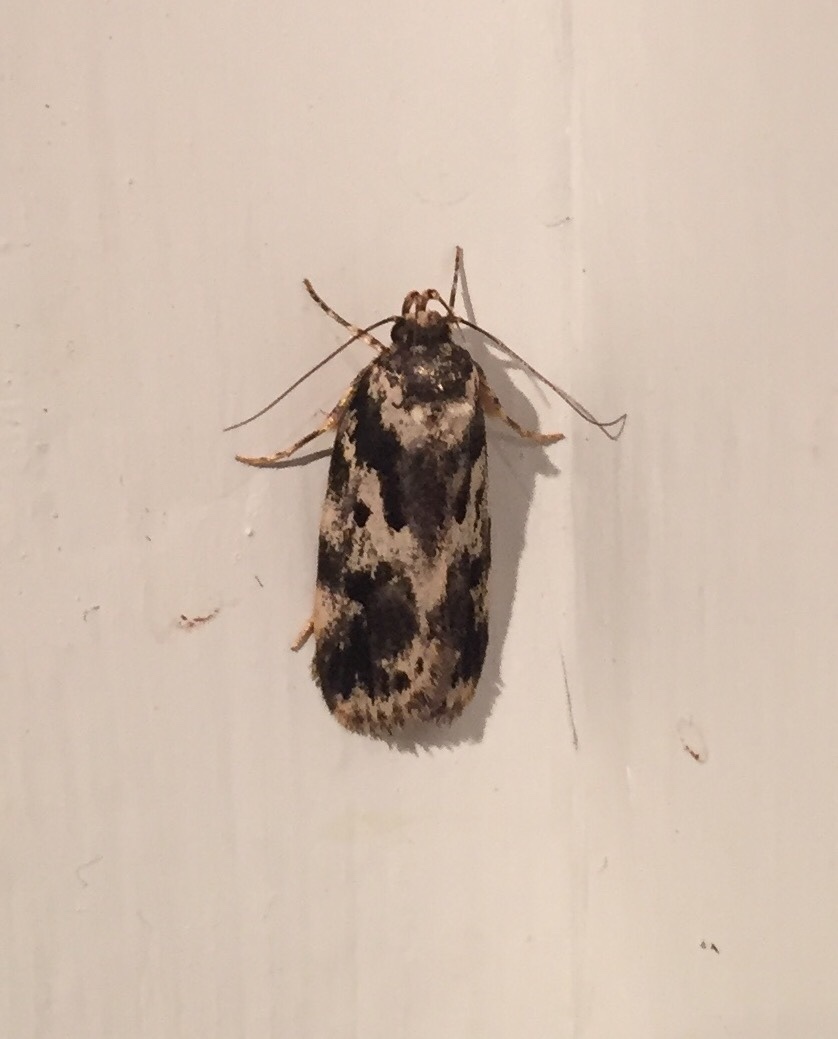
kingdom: Animalia
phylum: Arthropoda
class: Insecta
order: Lepidoptera
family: Oecophoridae
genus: Barea
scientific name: Barea confusella
